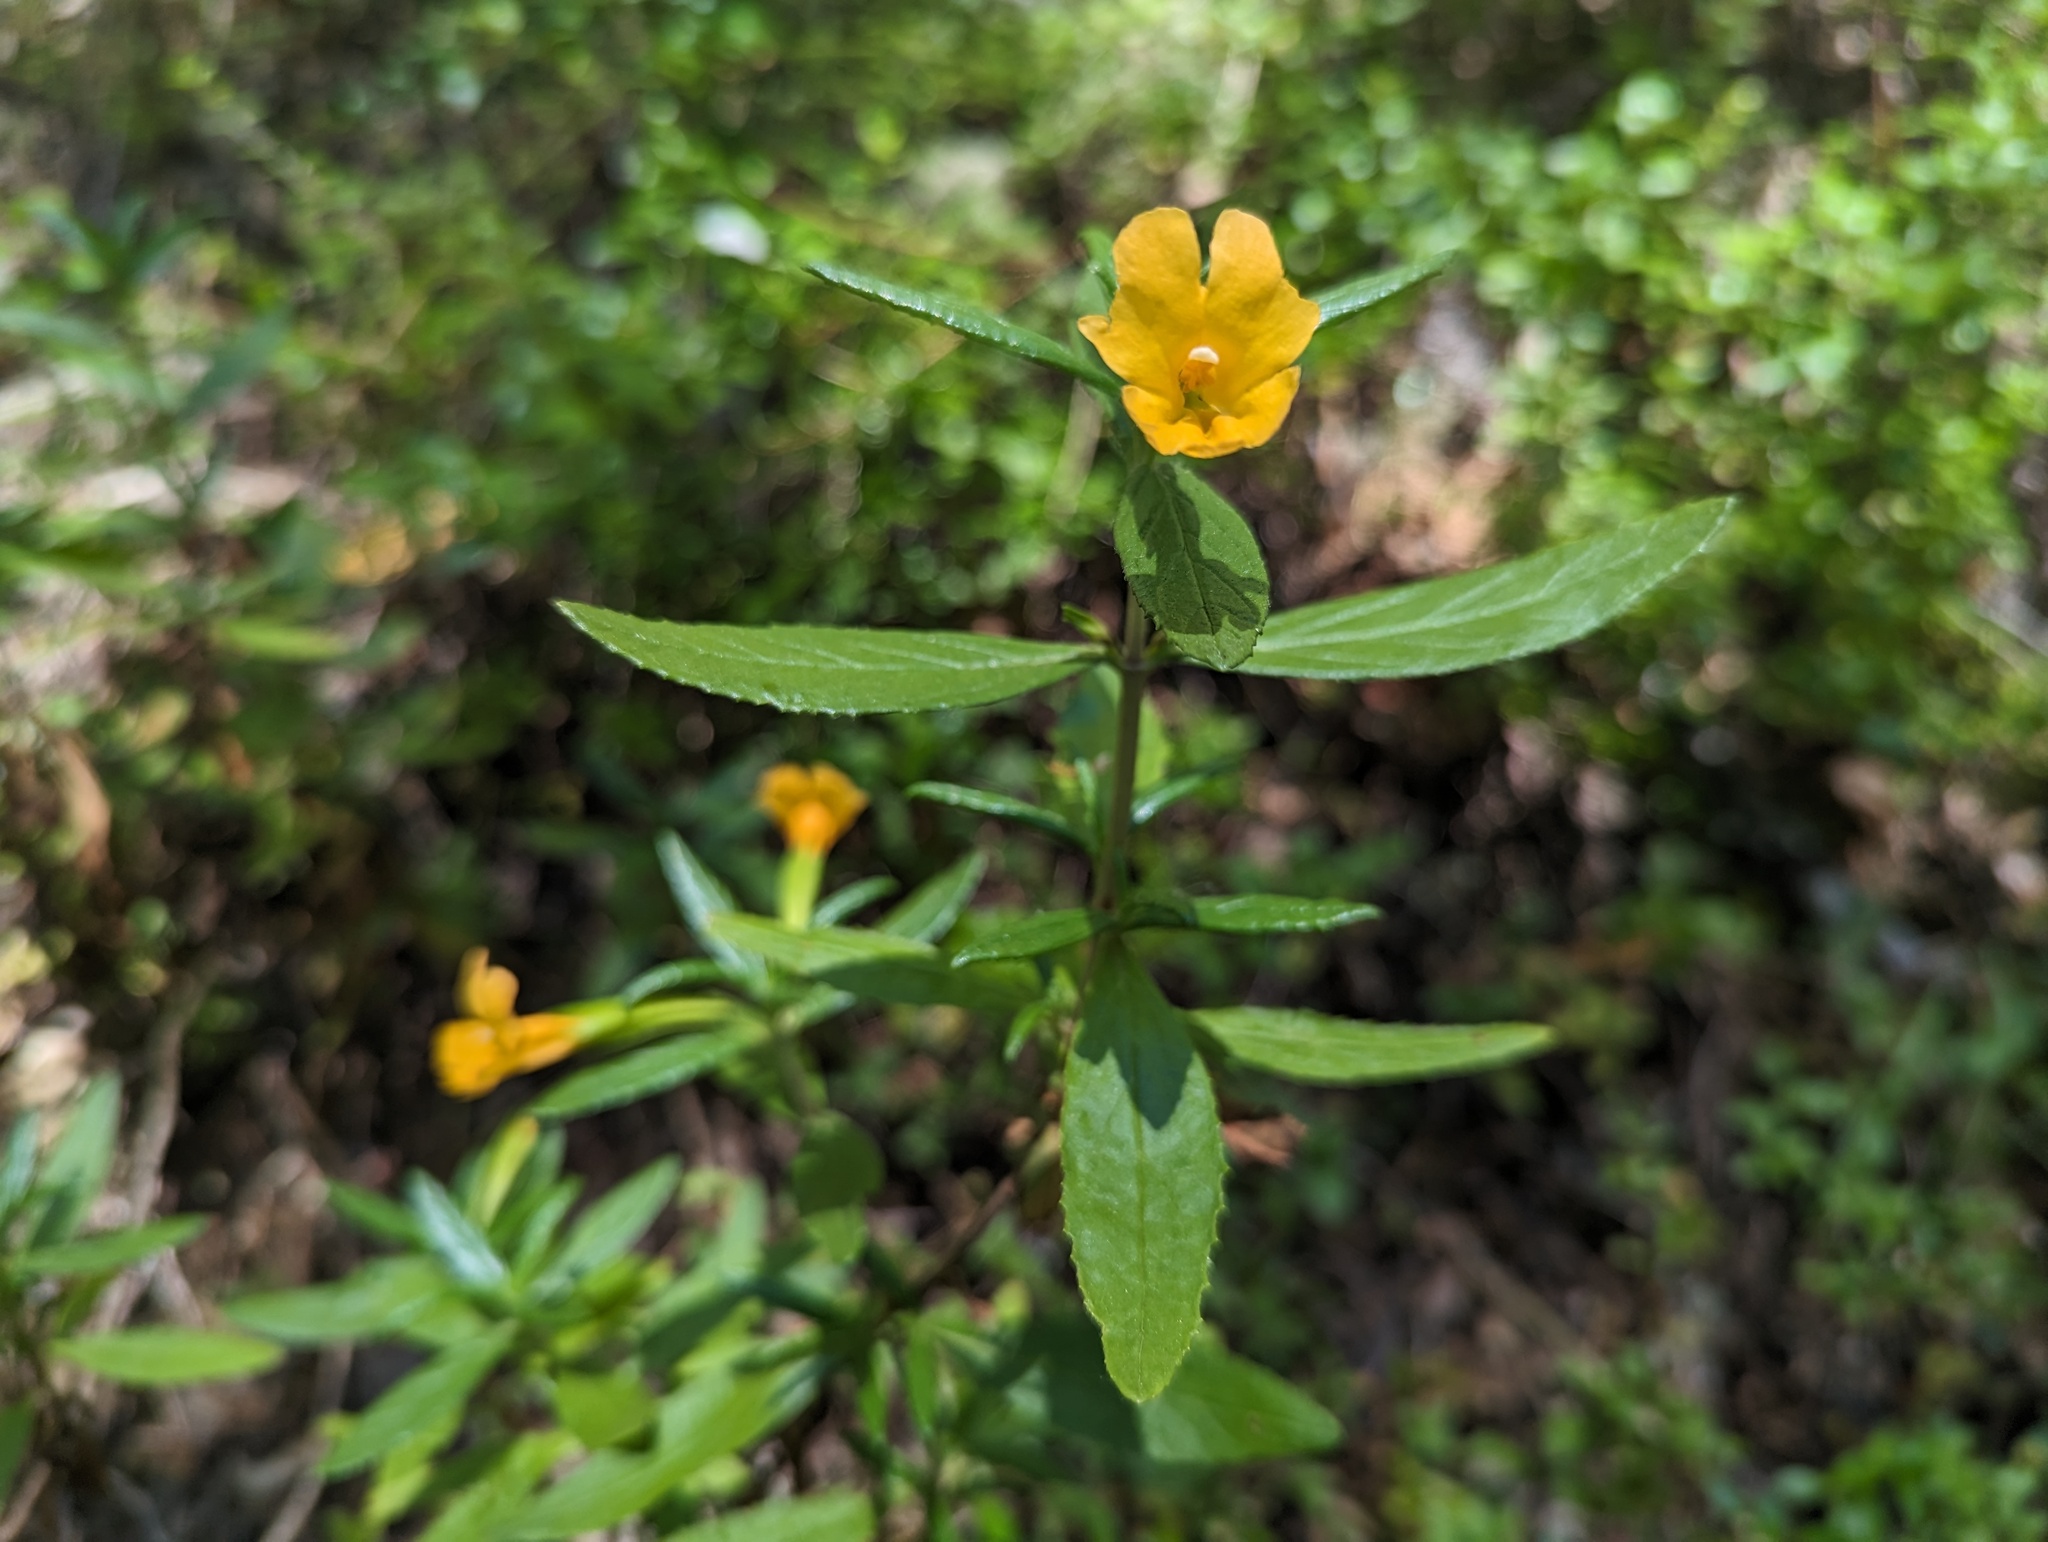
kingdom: Plantae
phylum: Tracheophyta
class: Magnoliopsida
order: Lamiales
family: Phrymaceae
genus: Diplacus
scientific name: Diplacus aurantiacus
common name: Bush monkey-flower
